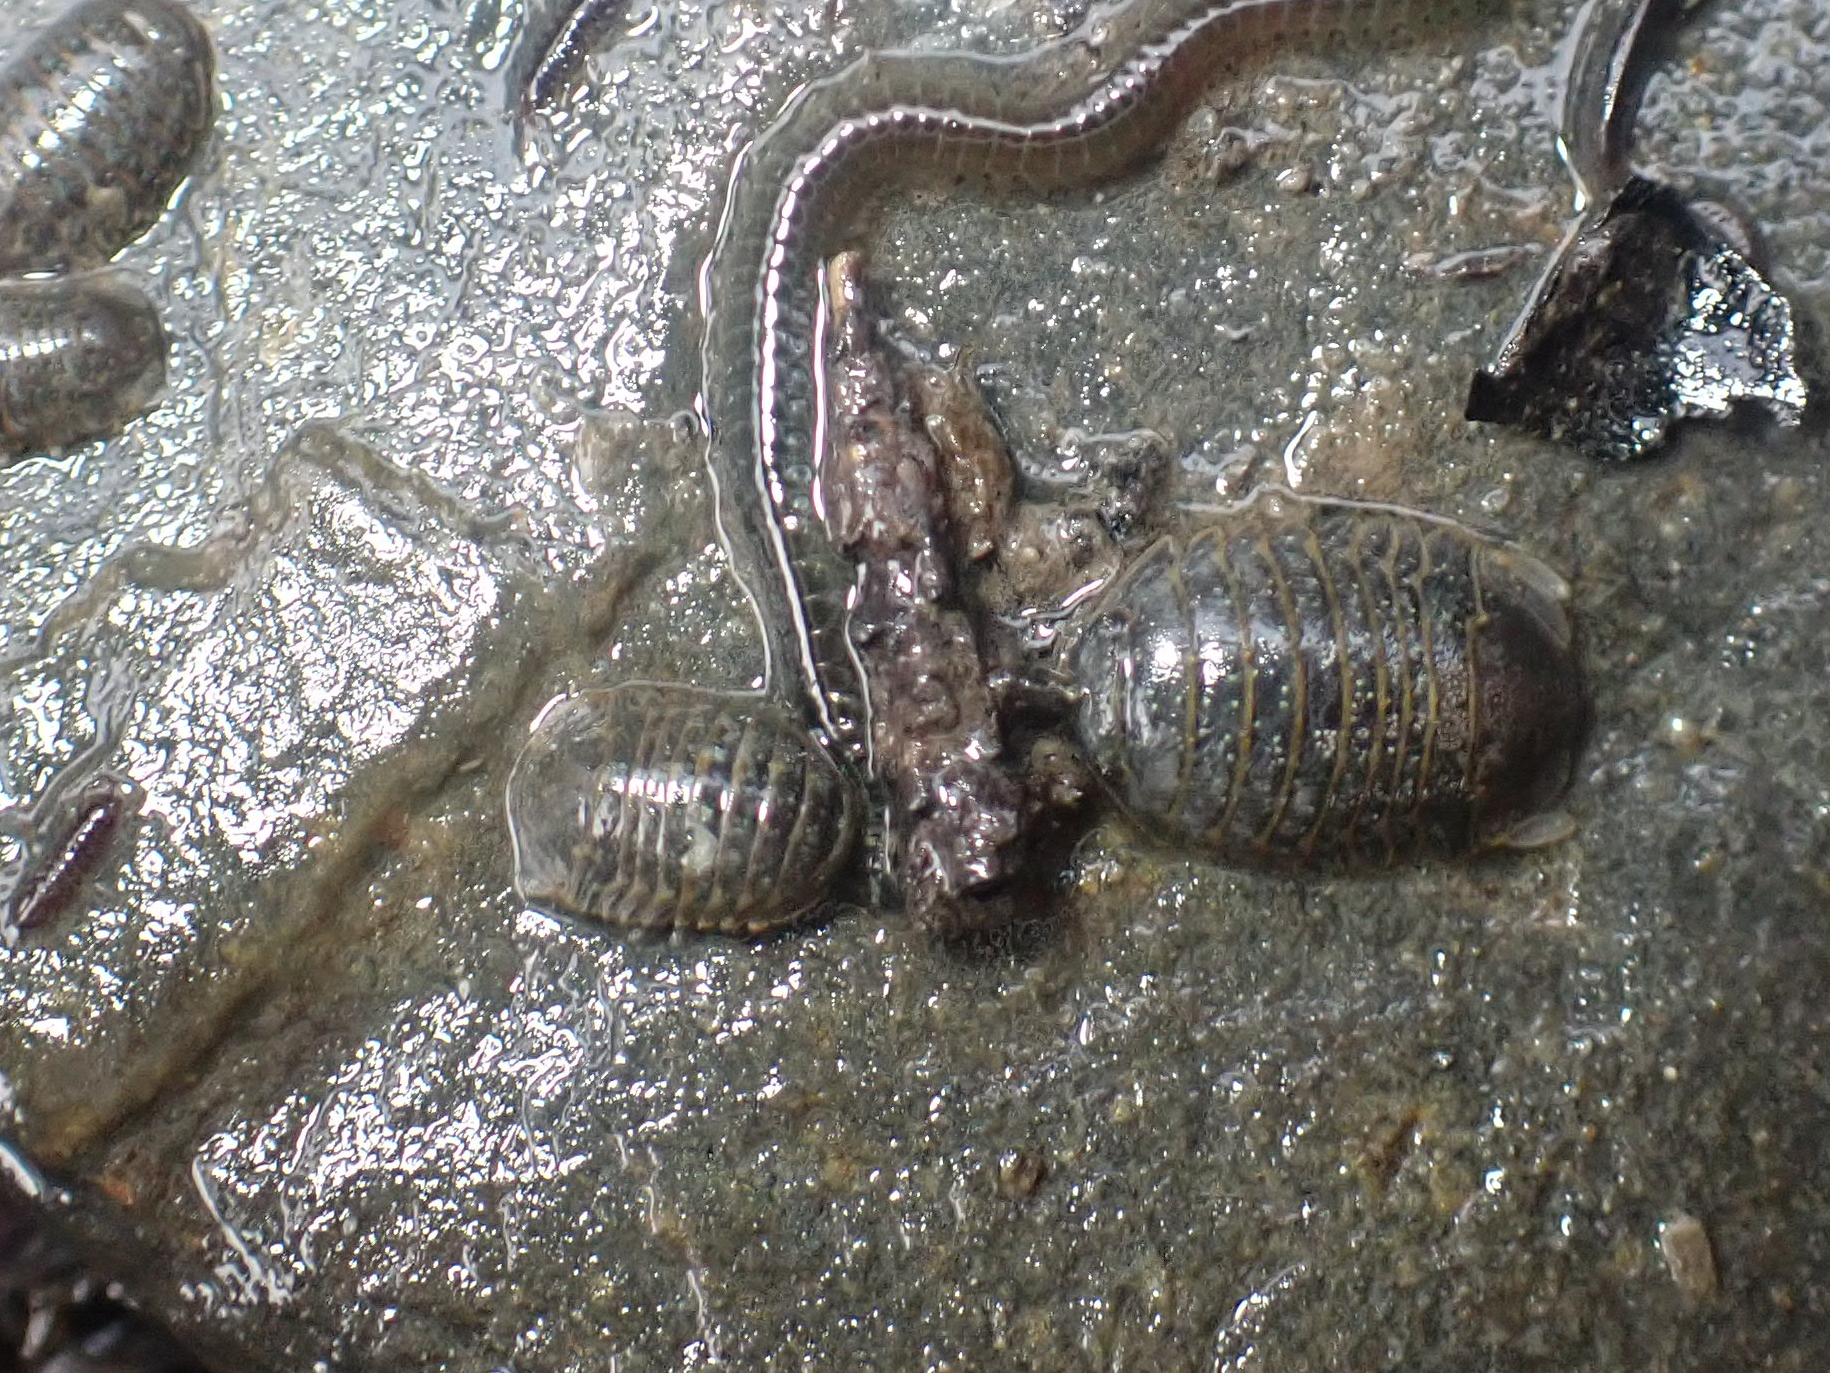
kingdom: Animalia
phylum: Arthropoda
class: Malacostraca
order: Isopoda
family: Sphaeromatidae
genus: Gnorimosphaeroma
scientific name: Gnorimosphaeroma oregonense
